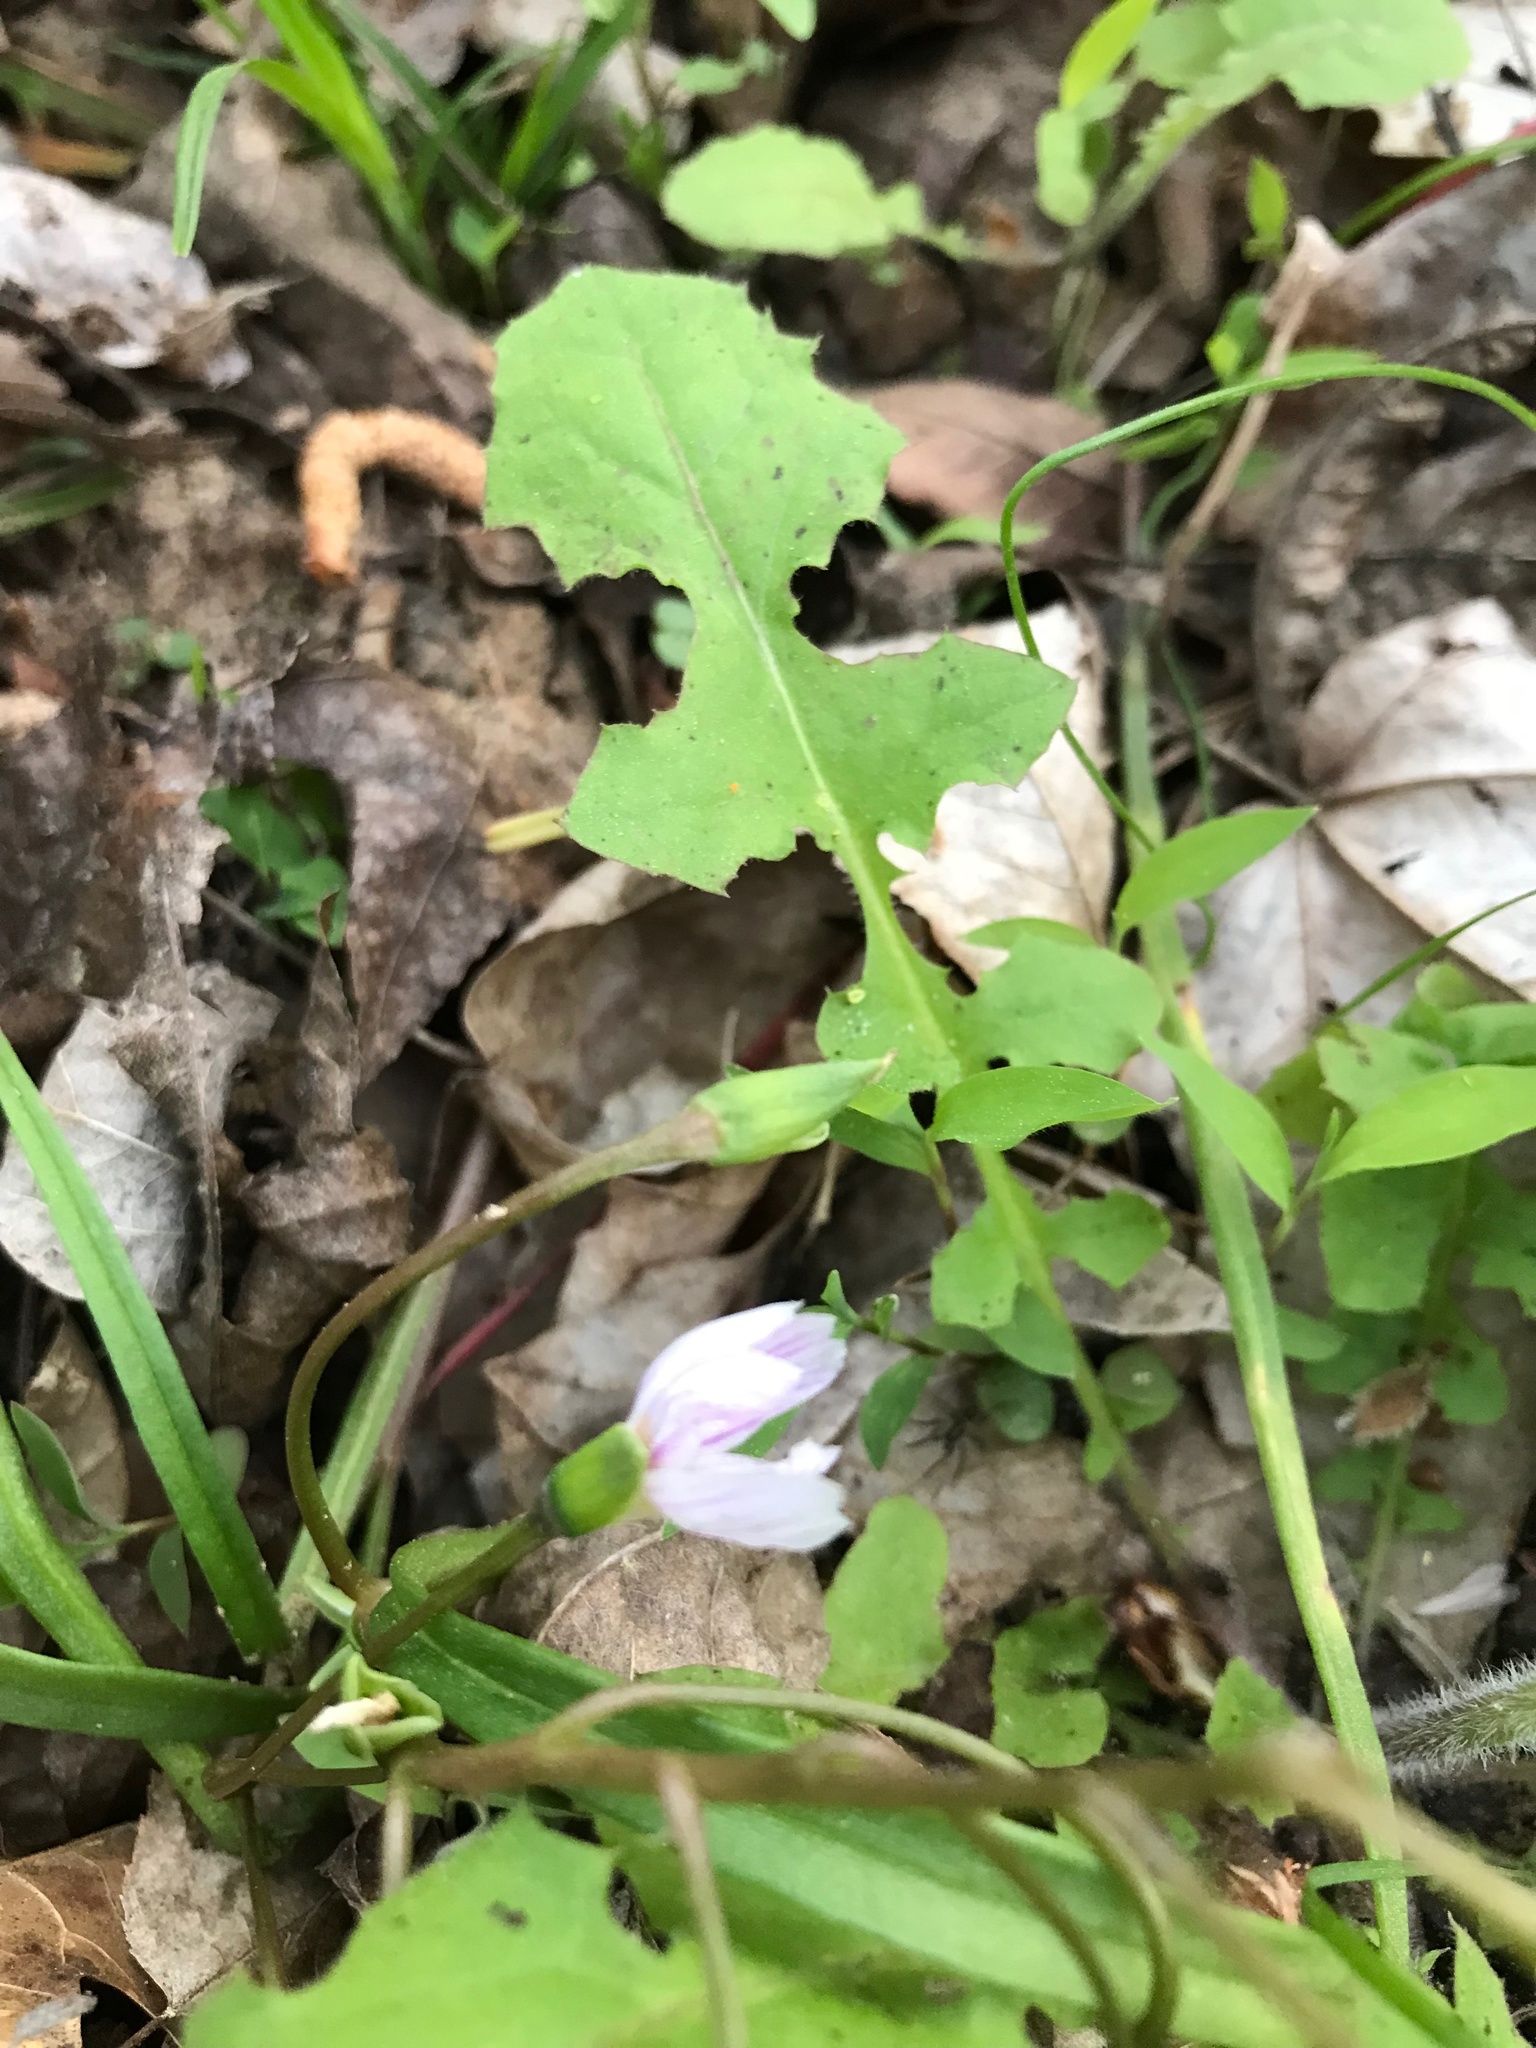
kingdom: Plantae
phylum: Tracheophyta
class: Magnoliopsida
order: Caryophyllales
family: Montiaceae
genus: Claytonia
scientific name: Claytonia virginica
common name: Virginia springbeauty
